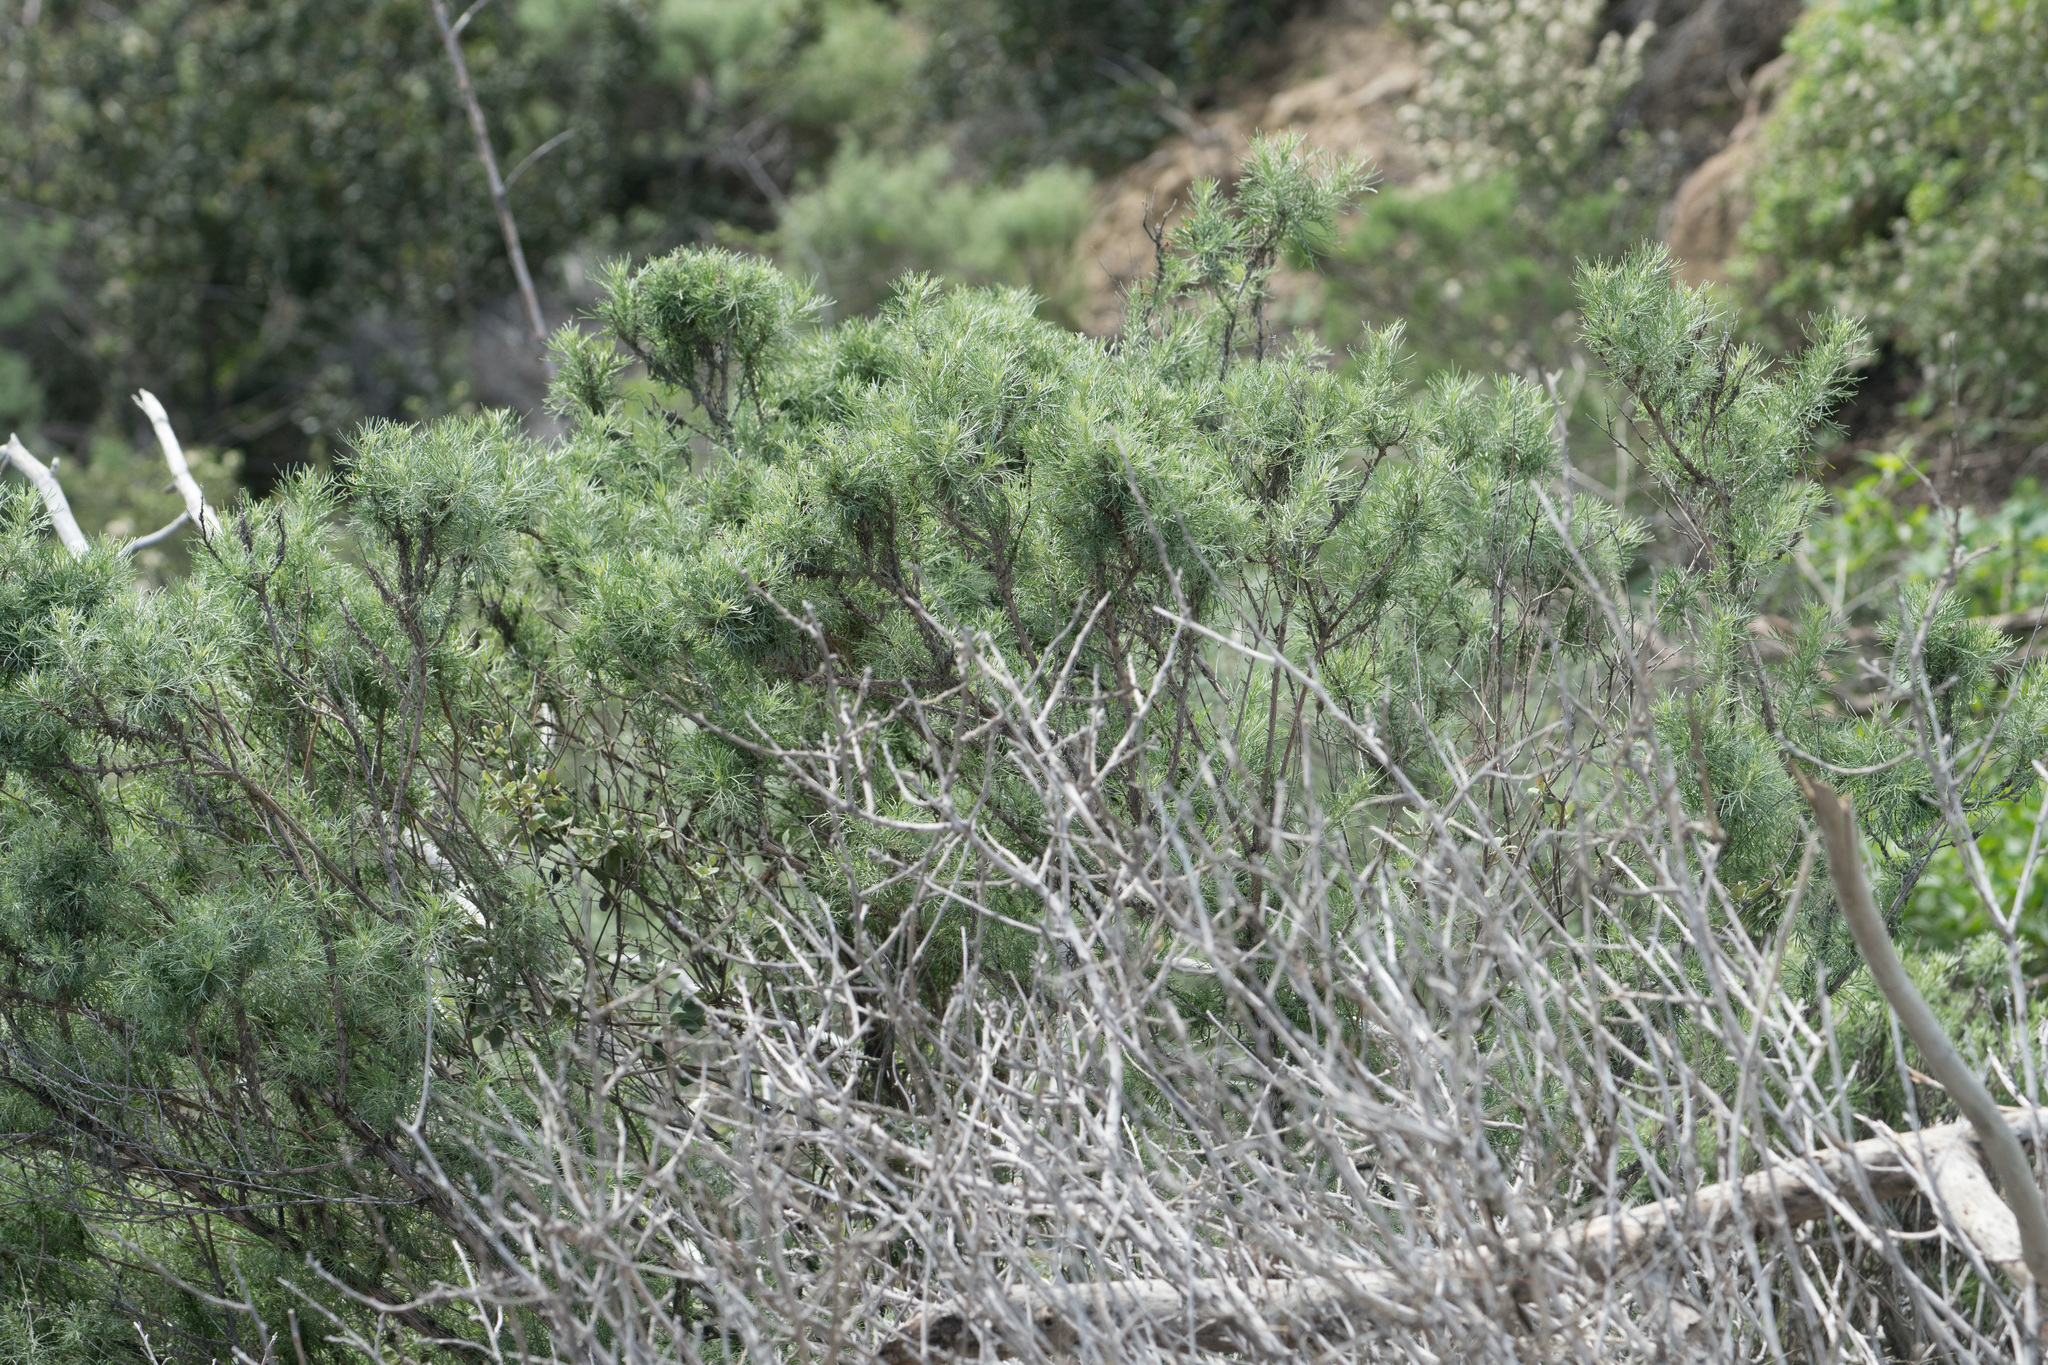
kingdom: Plantae
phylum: Tracheophyta
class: Magnoliopsida
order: Asterales
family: Asteraceae
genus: Artemisia
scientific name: Artemisia californica
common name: California sagebrush
